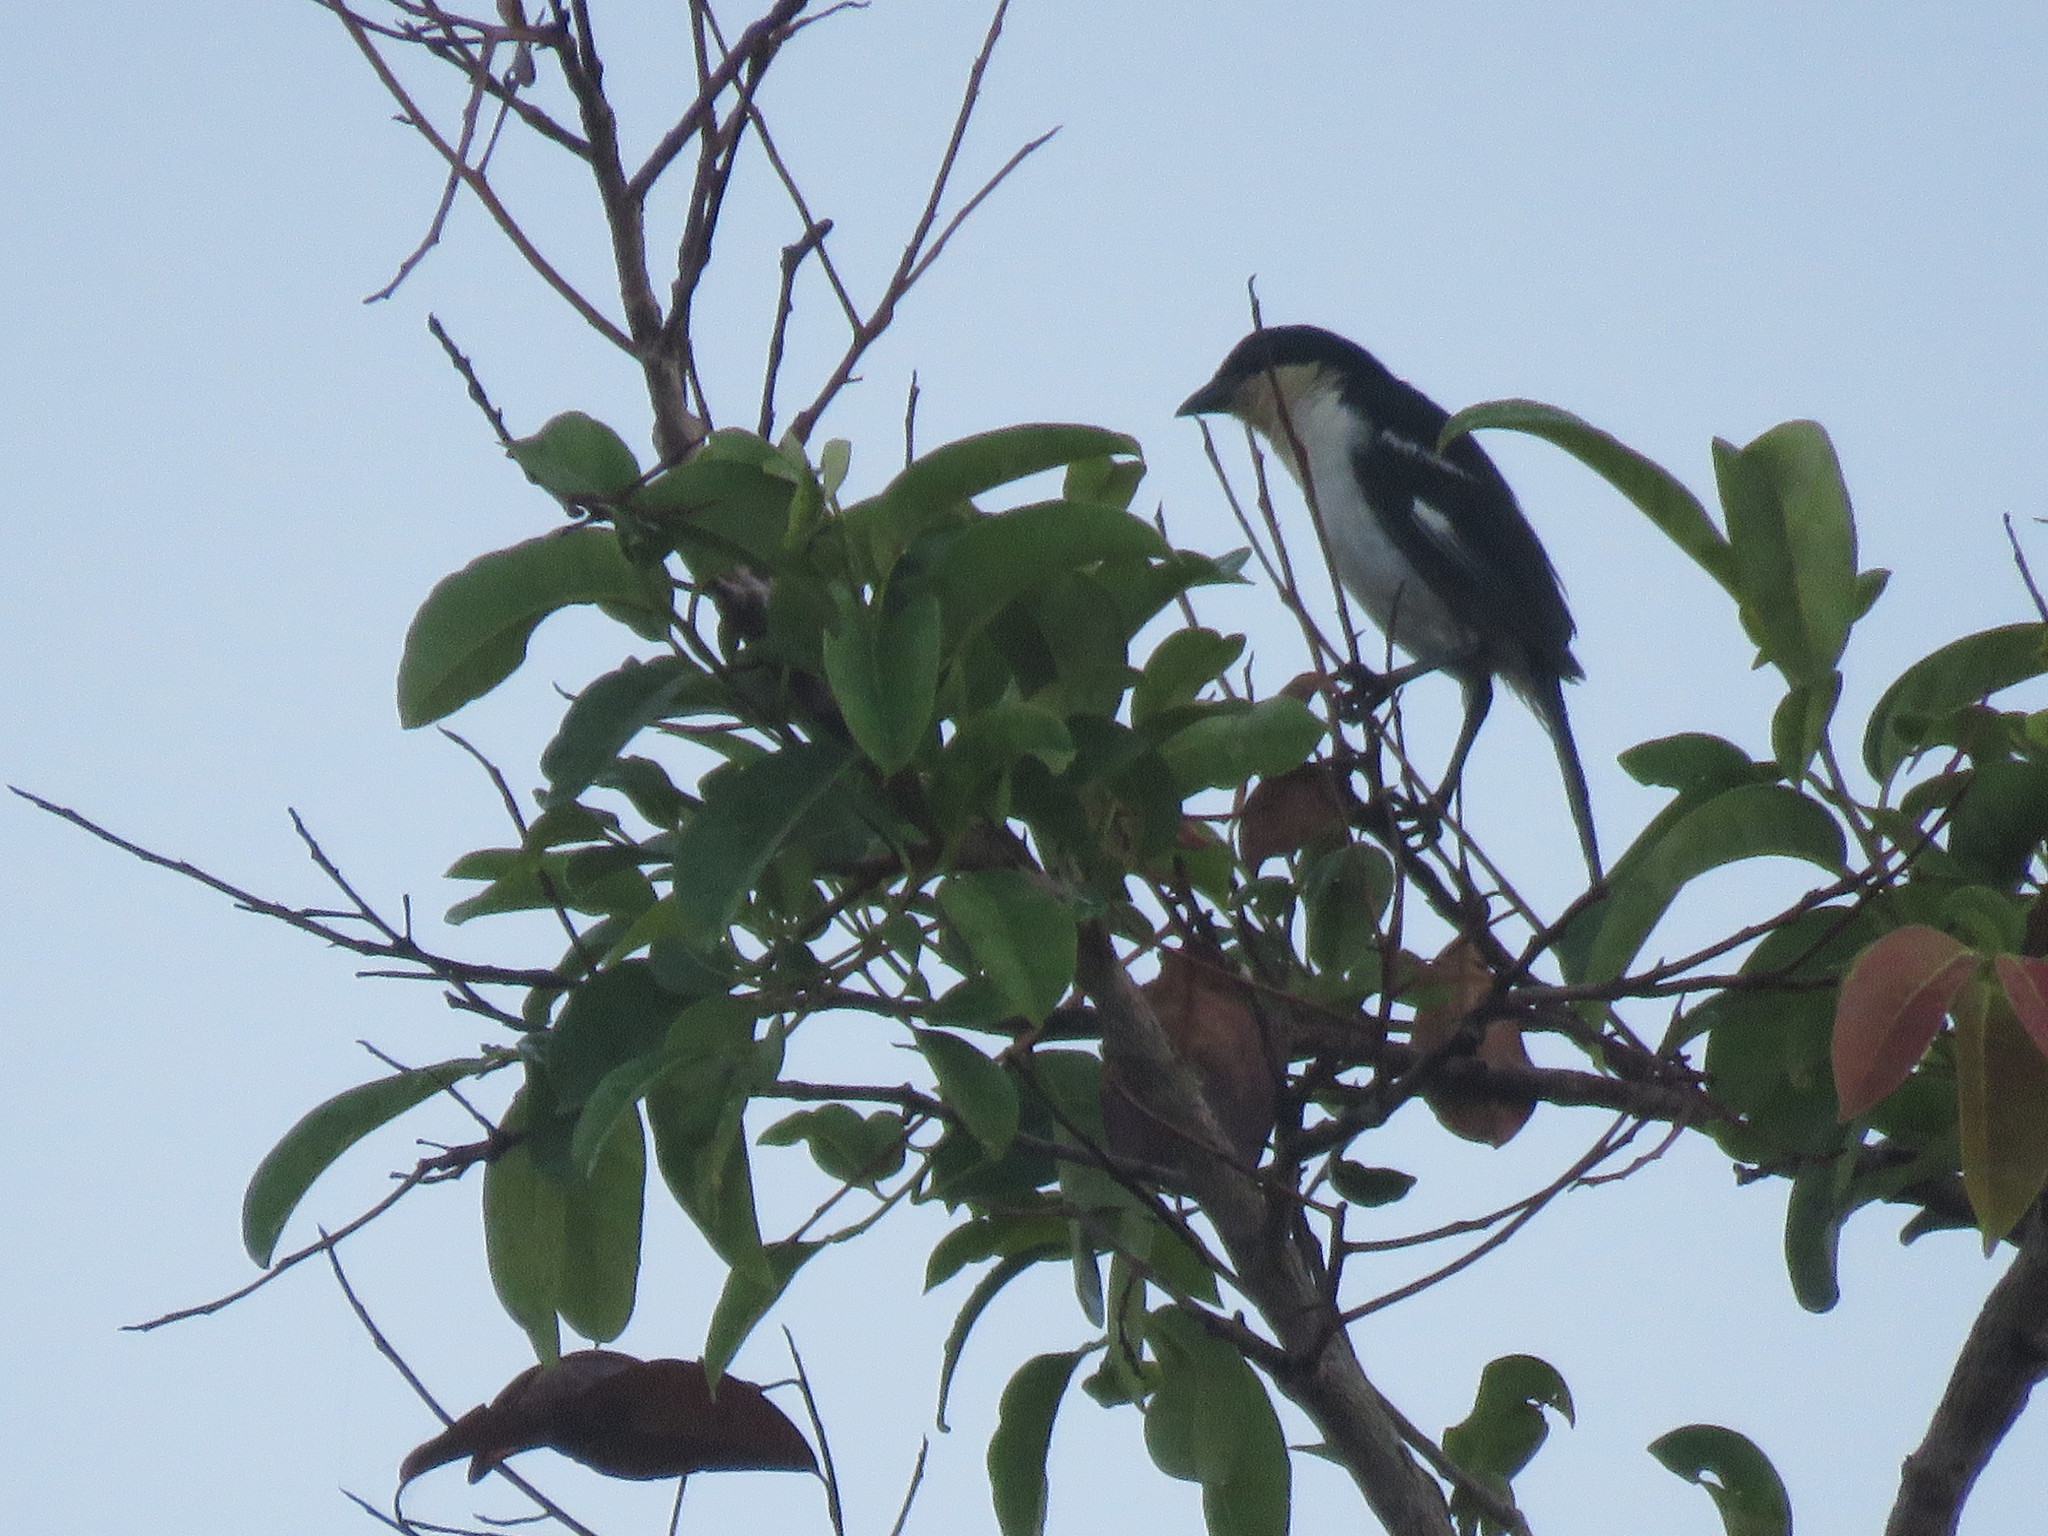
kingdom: Animalia
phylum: Chordata
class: Aves
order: Passeriformes
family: Thraupidae
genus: Cypsnagra
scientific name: Cypsnagra hirundinacea
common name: White-rumped tanager
